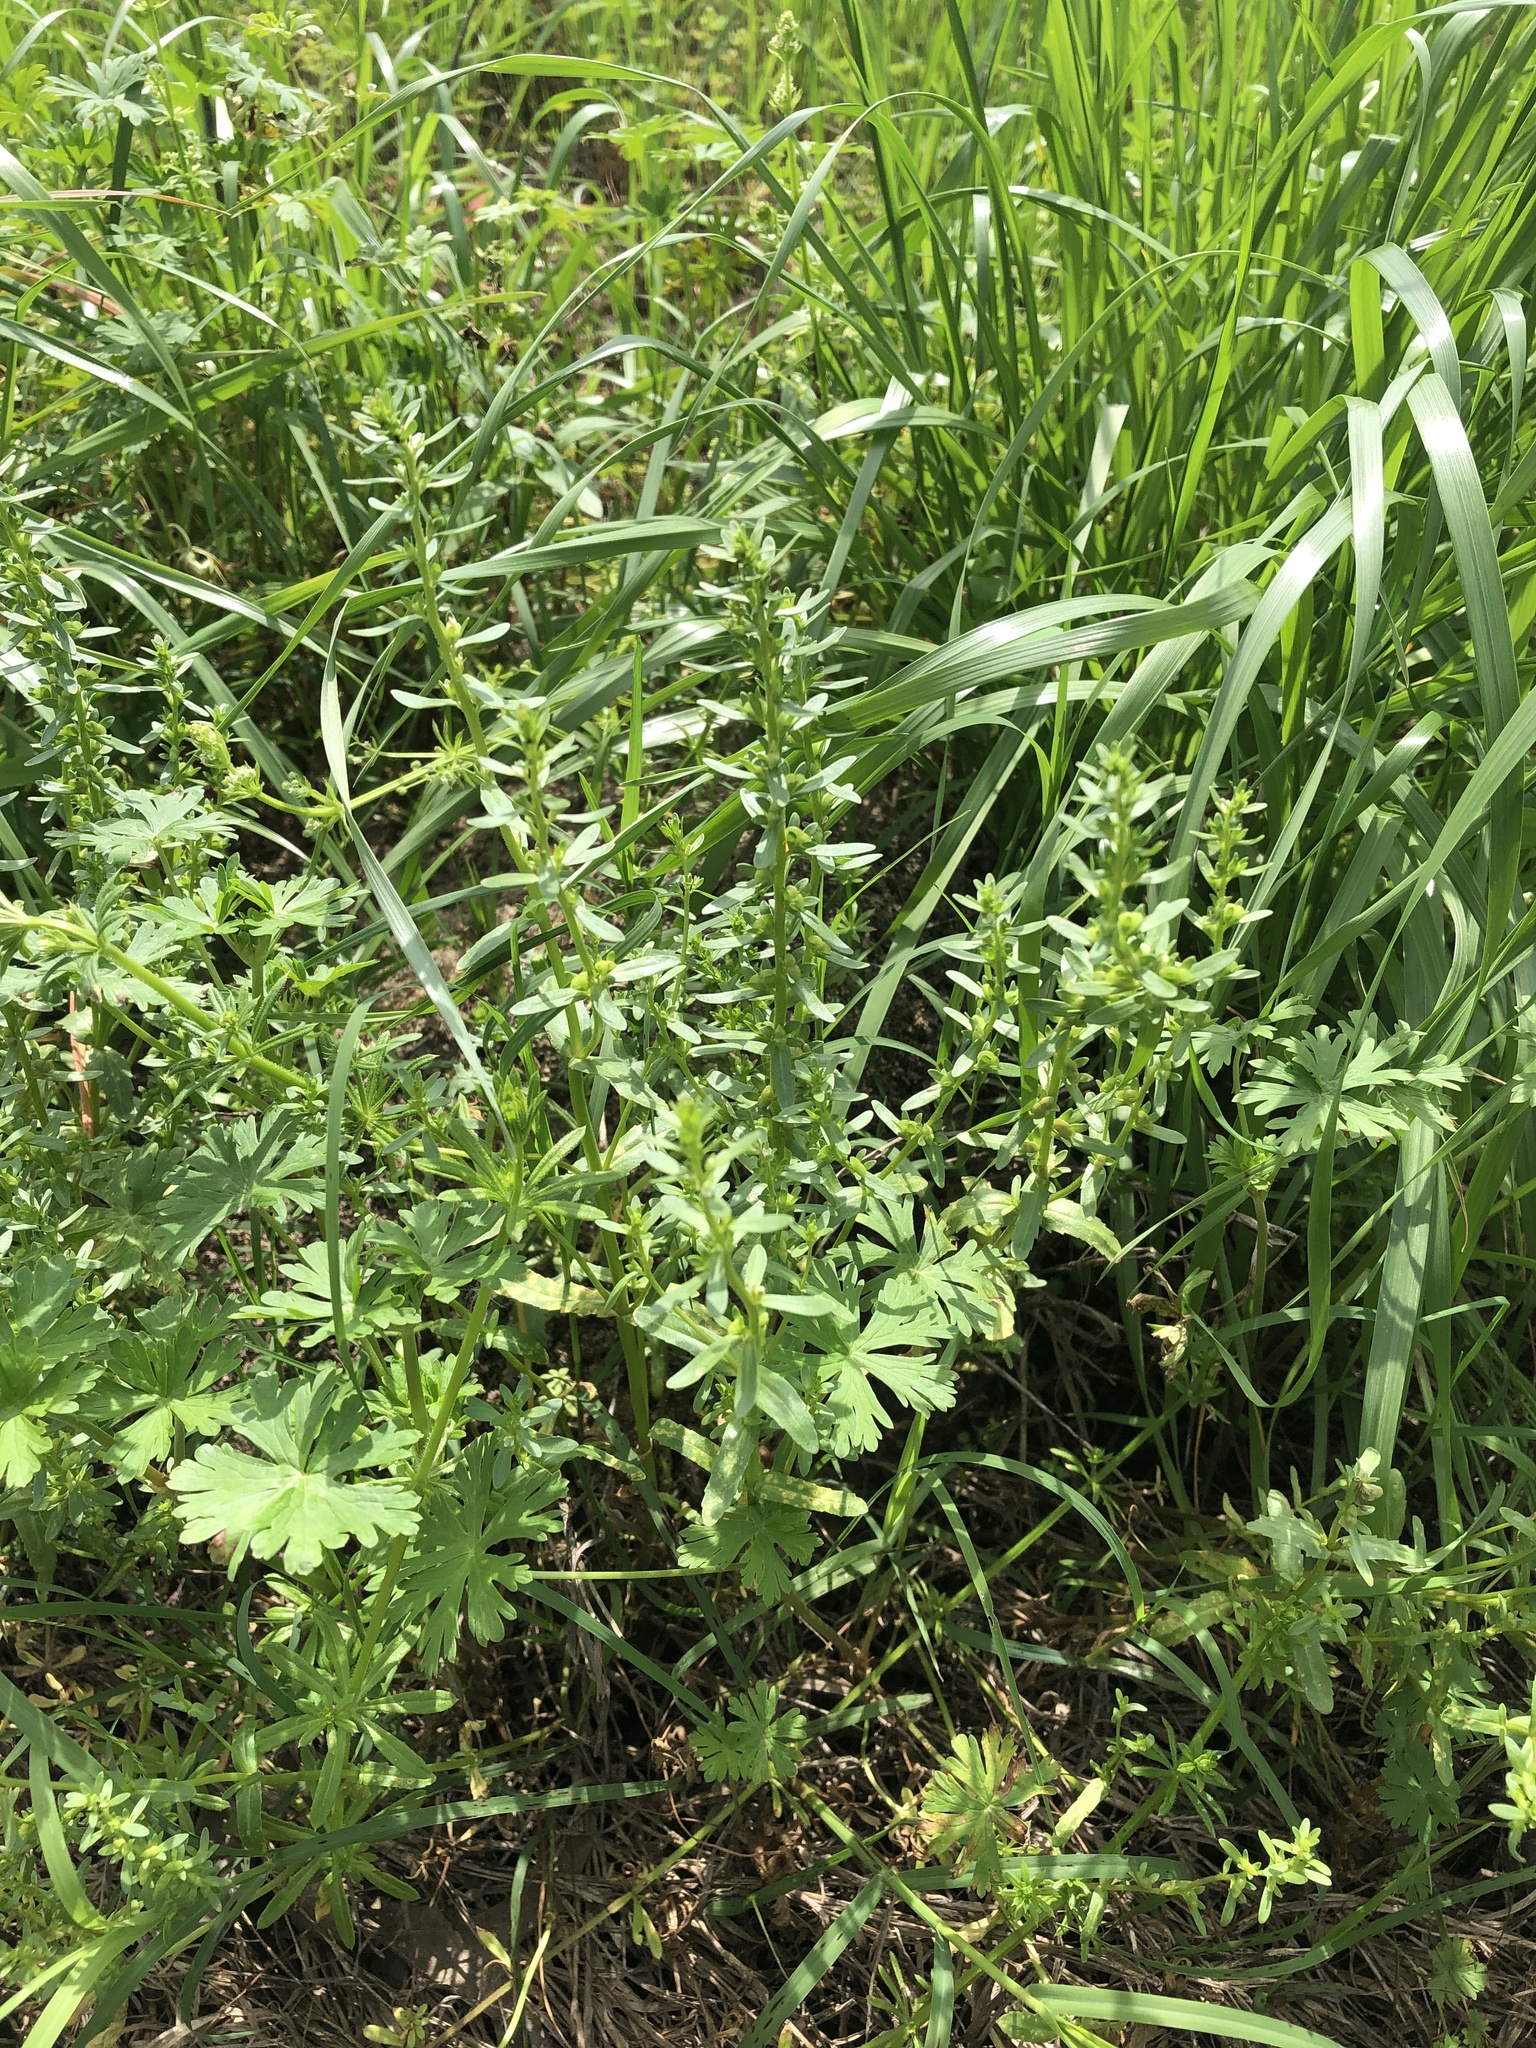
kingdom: Plantae
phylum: Tracheophyta
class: Magnoliopsida
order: Lamiales
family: Plantaginaceae
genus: Veronica
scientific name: Veronica peregrina
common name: Neckweed
